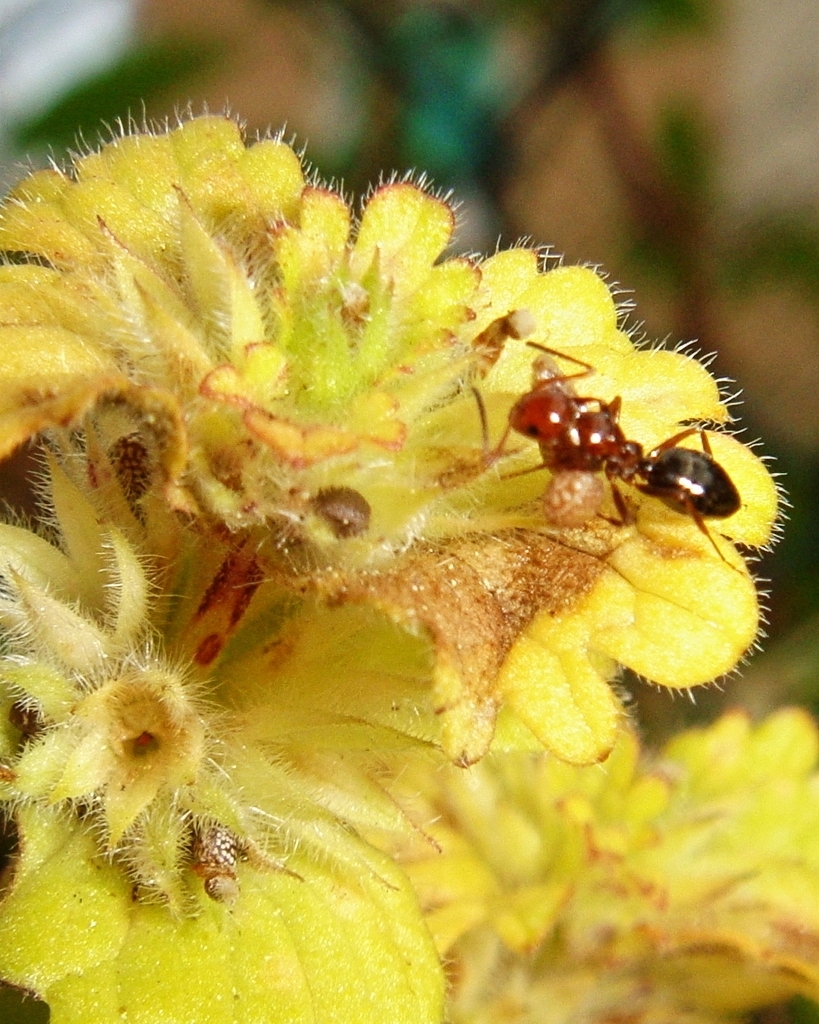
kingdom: Animalia
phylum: Arthropoda
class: Insecta
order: Hymenoptera
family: Formicidae
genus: Camponotus
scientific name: Camponotus lateralis
